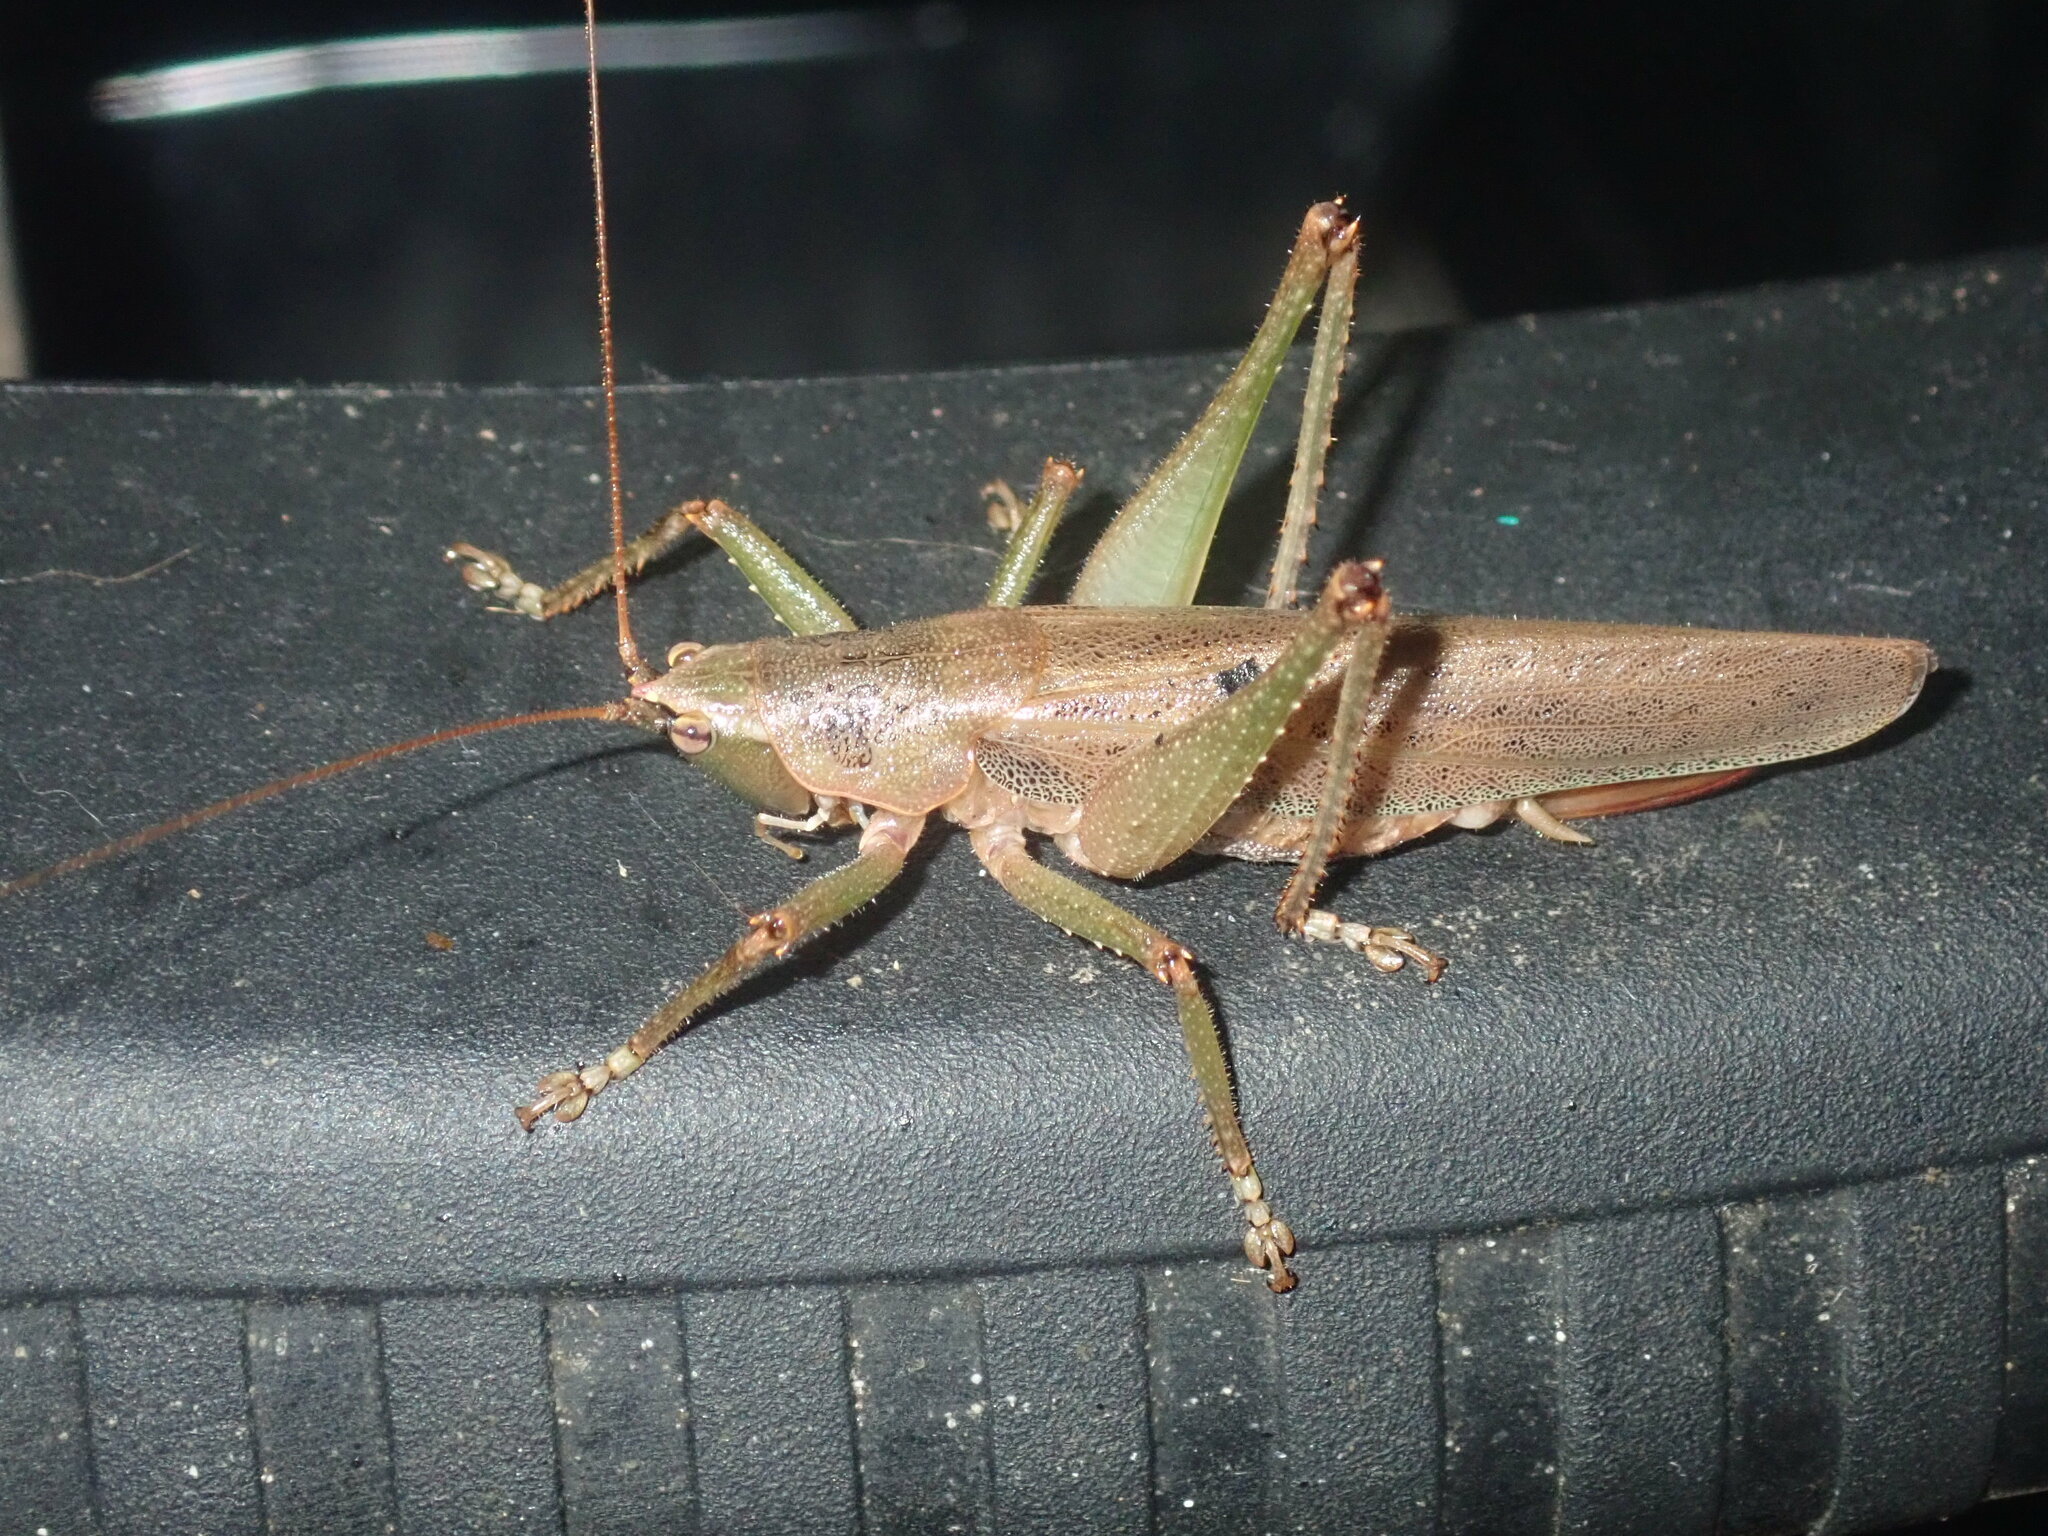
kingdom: Animalia
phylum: Arthropoda
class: Insecta
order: Orthoptera
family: Tettigoniidae
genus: Austrosalomona
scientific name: Austrosalomona falcata
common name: Olive-green coastal katydid
